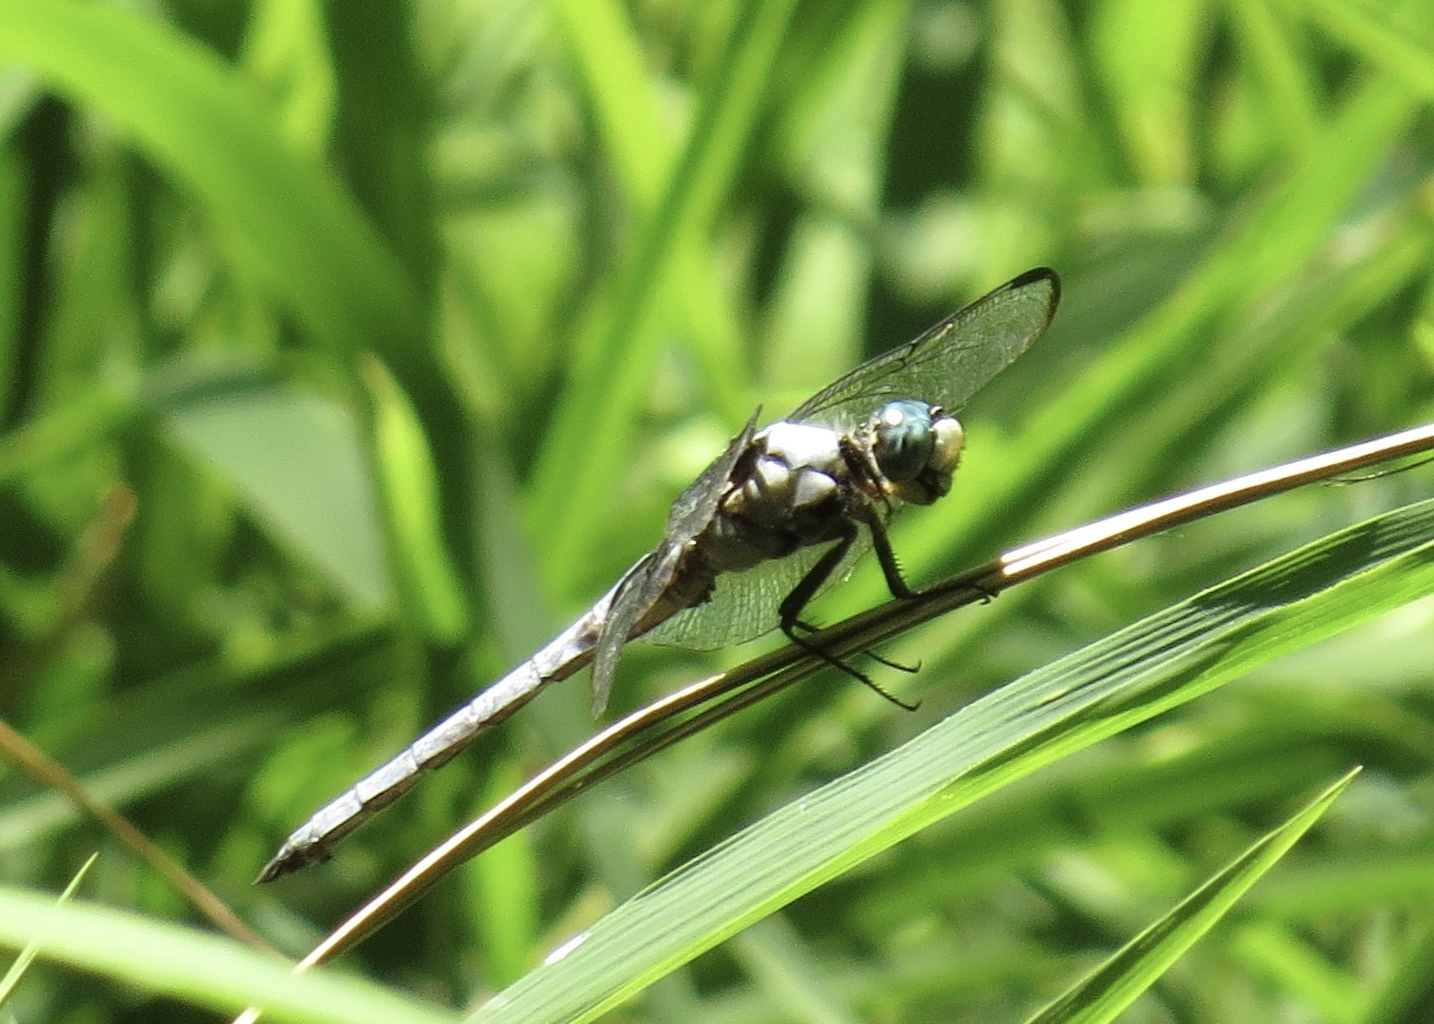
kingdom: Animalia
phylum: Arthropoda
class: Insecta
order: Odonata
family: Libellulidae
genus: Libellula
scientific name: Libellula vibrans
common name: Great blue skimmer
